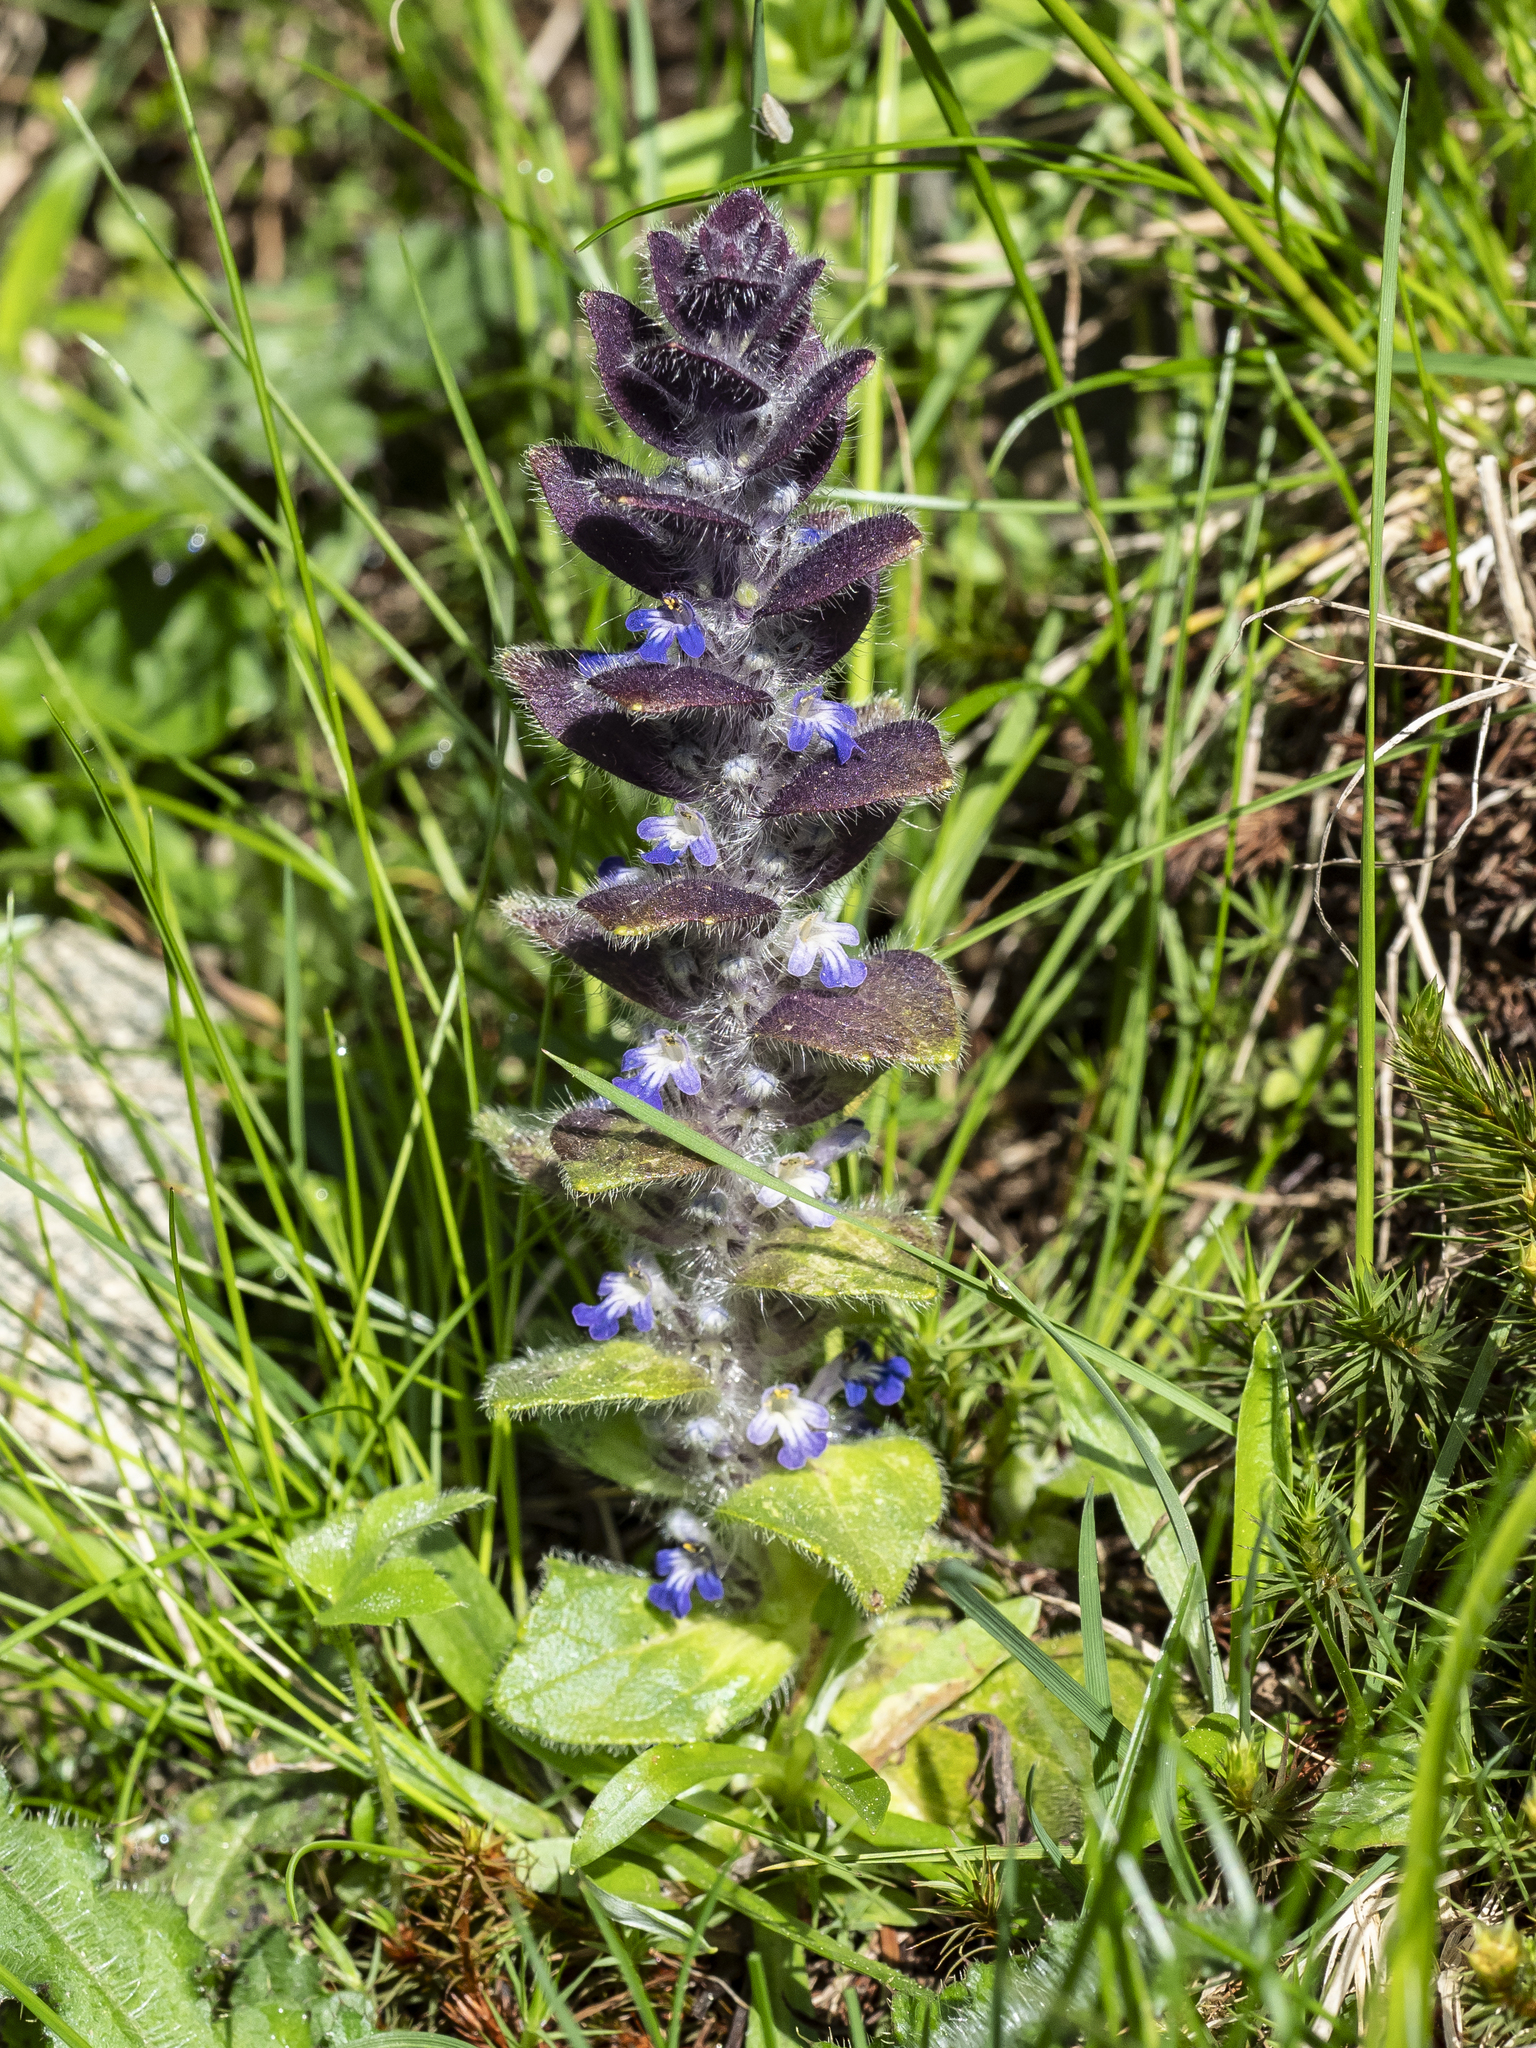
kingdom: Plantae
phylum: Tracheophyta
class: Magnoliopsida
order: Lamiales
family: Lamiaceae
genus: Ajuga
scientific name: Ajuga pyramidalis
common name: Pyramid bugle
